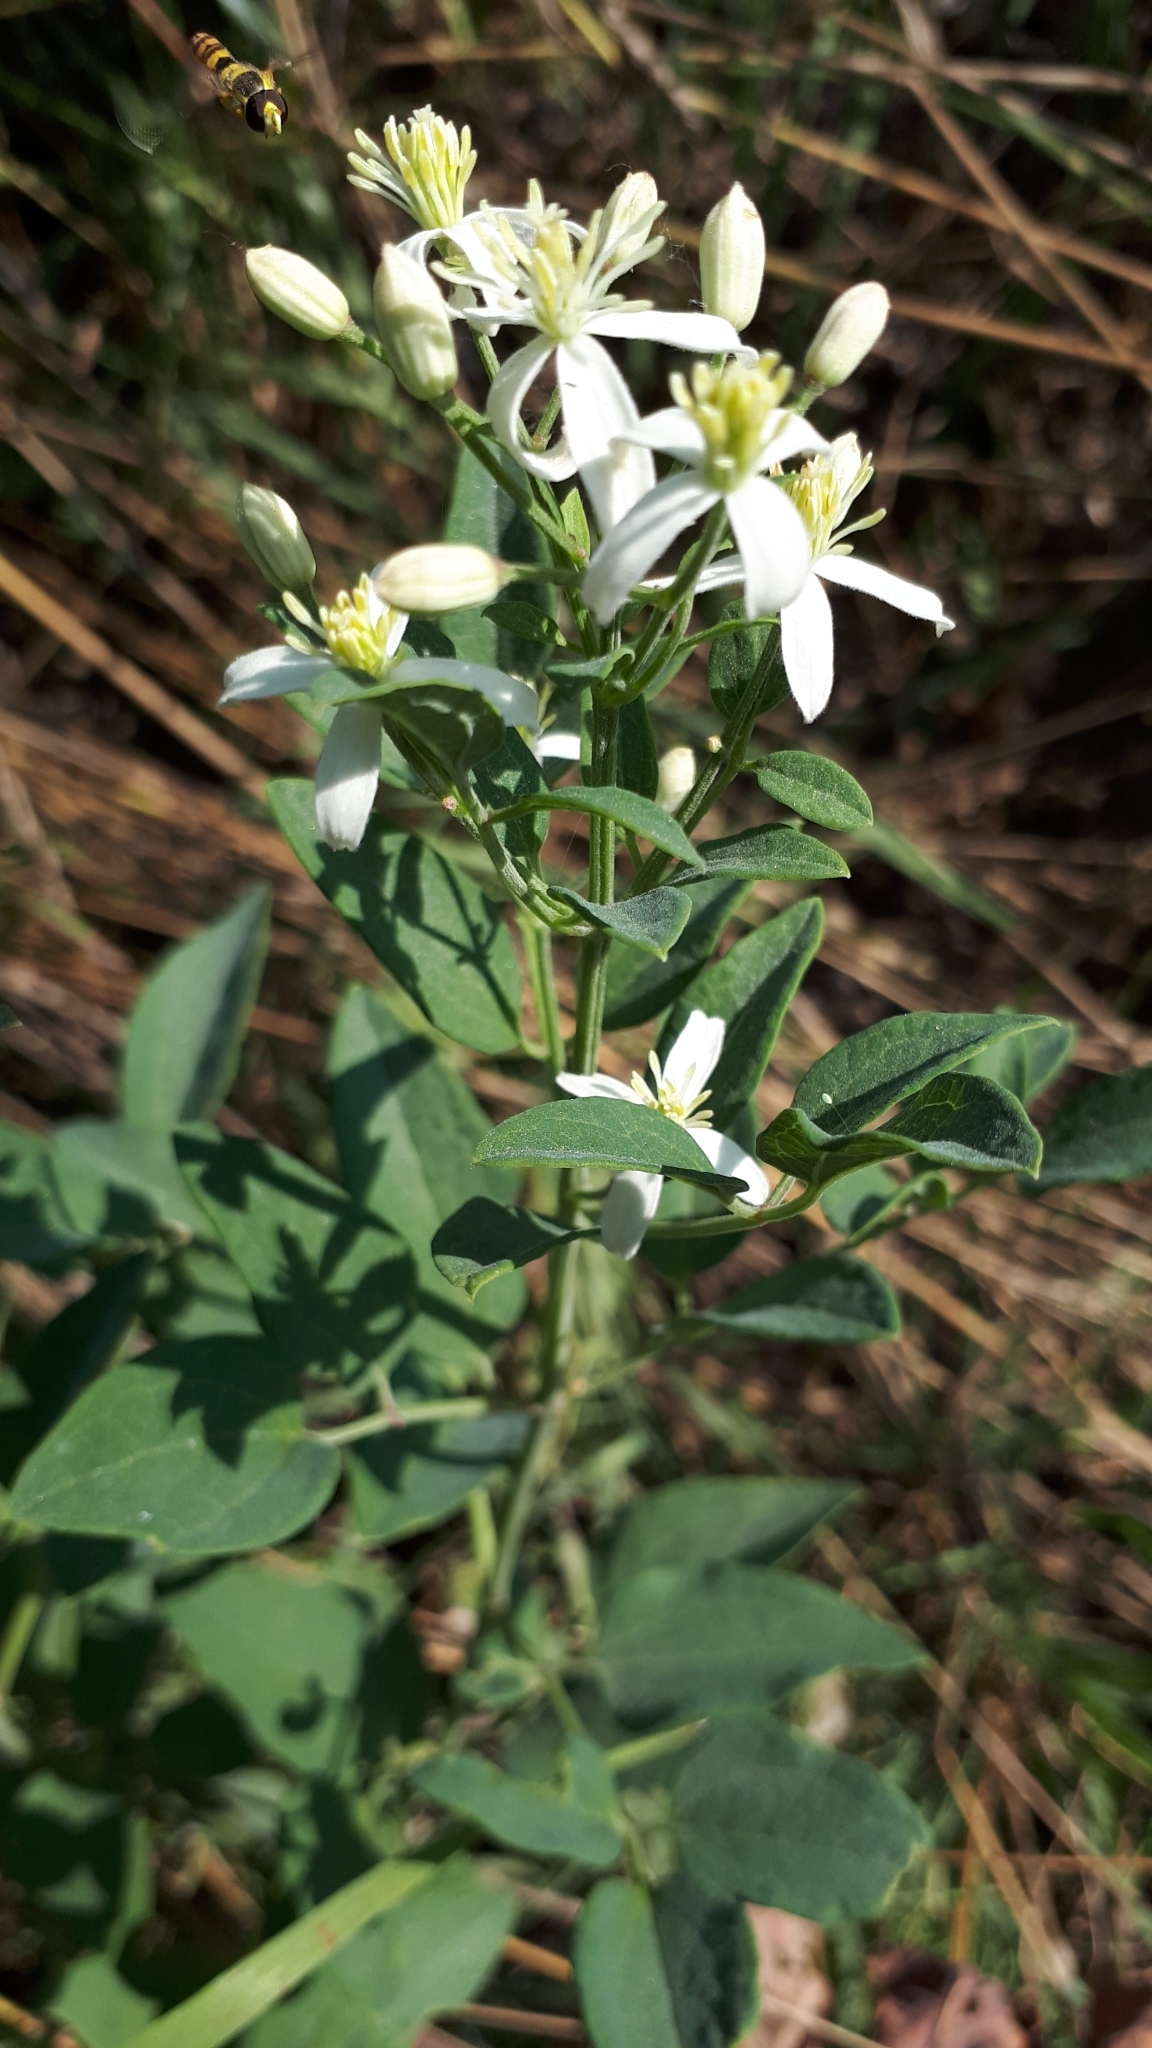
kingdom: Plantae
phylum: Tracheophyta
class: Magnoliopsida
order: Ranunculales
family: Ranunculaceae
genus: Clematis
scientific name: Clematis recta
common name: Ground clematis
